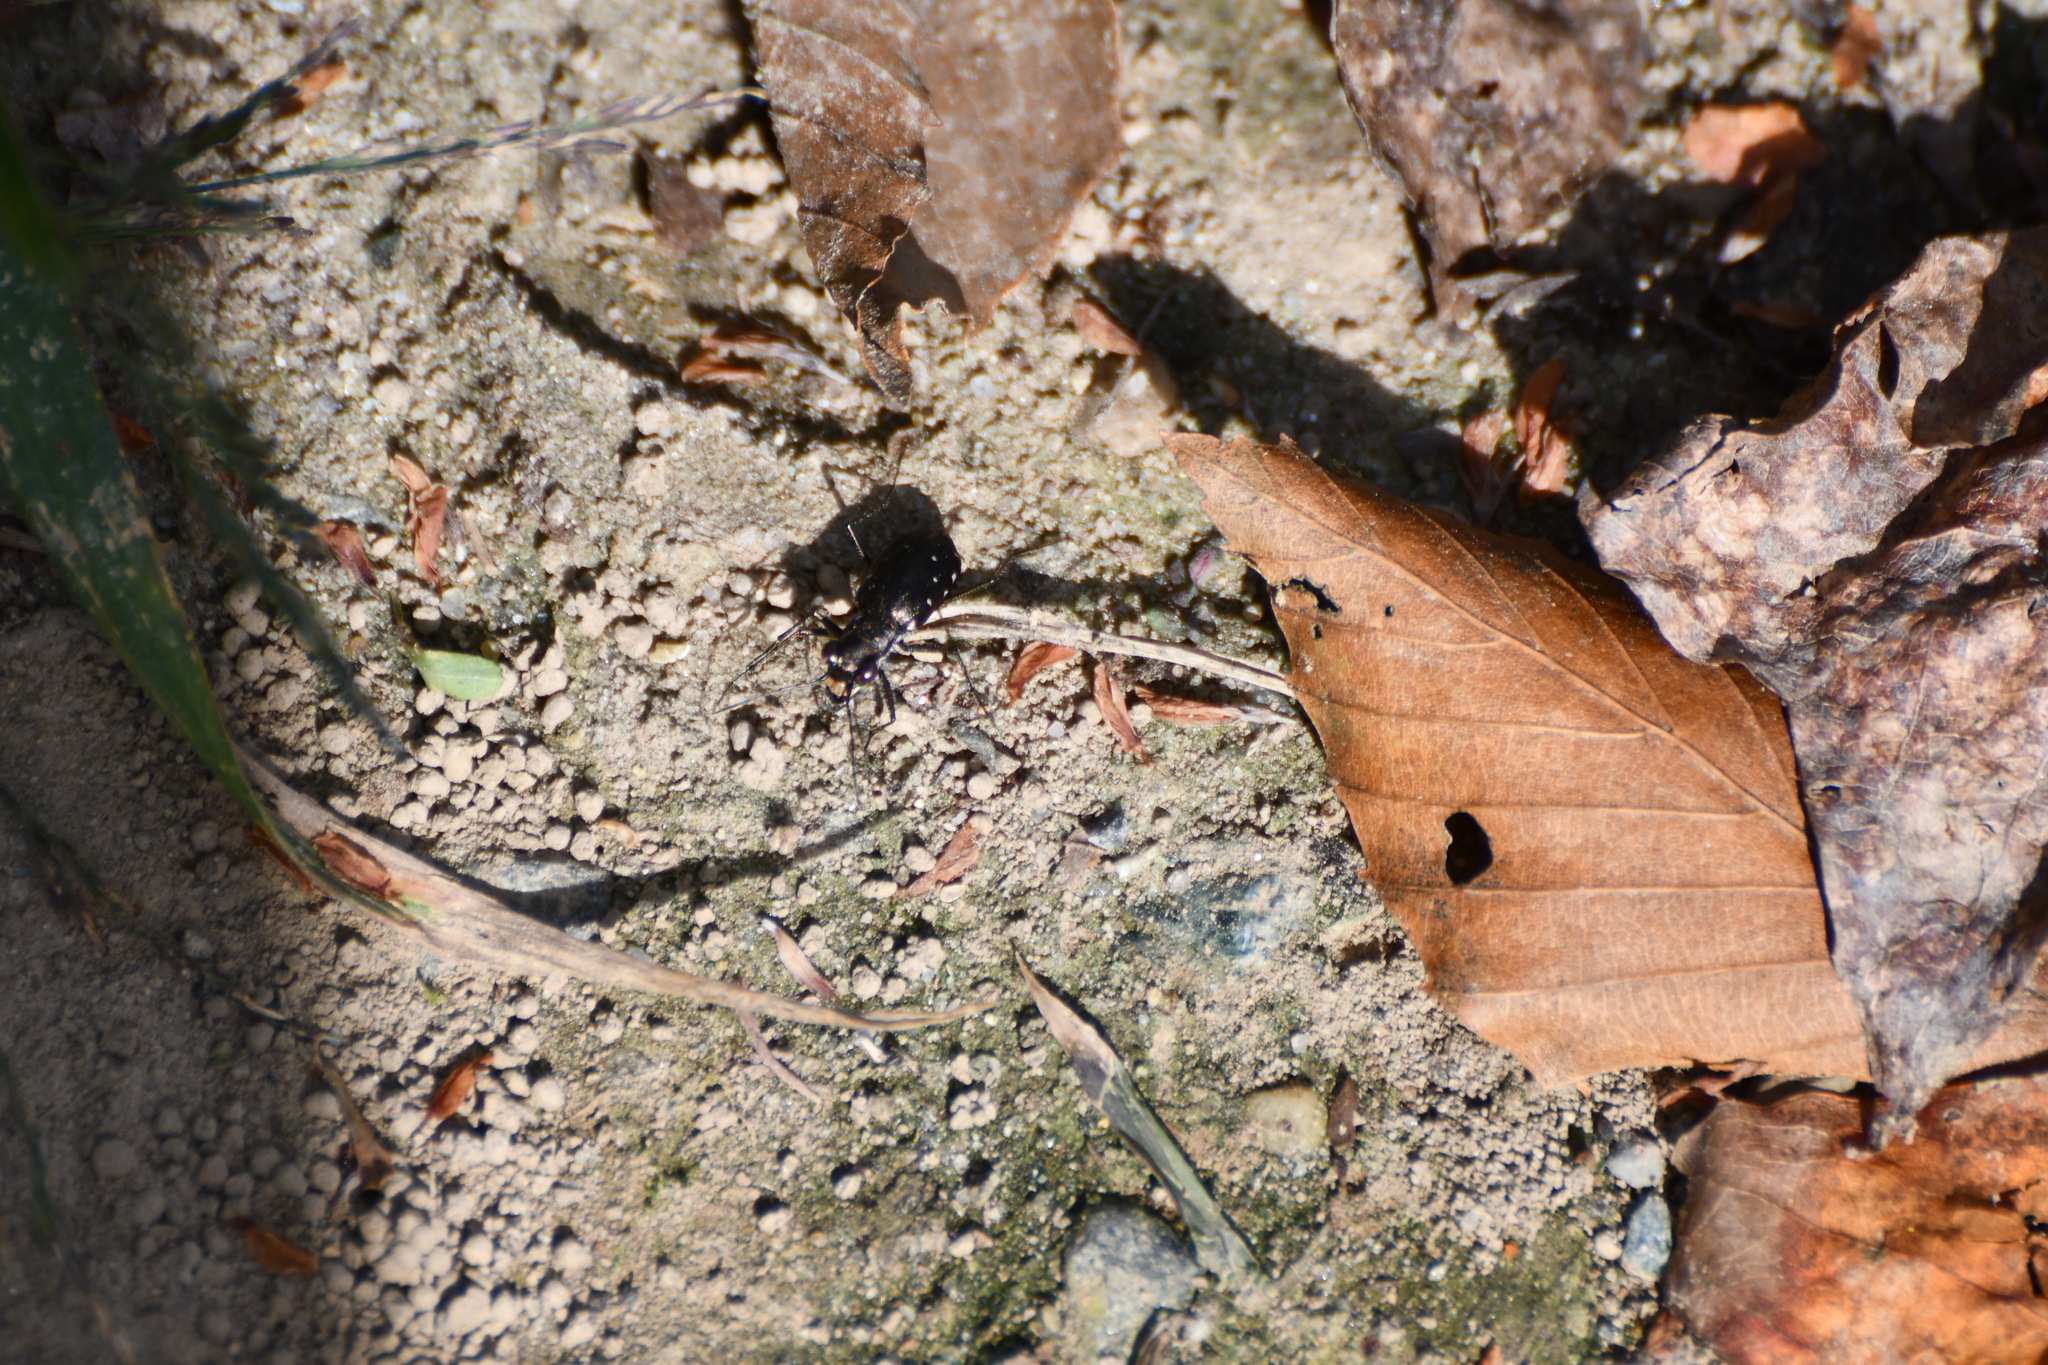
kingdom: Animalia
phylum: Arthropoda
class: Insecta
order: Coleoptera
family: Carabidae
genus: Cicindela
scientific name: Cicindela punctulata
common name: Punctured tiger beetle
